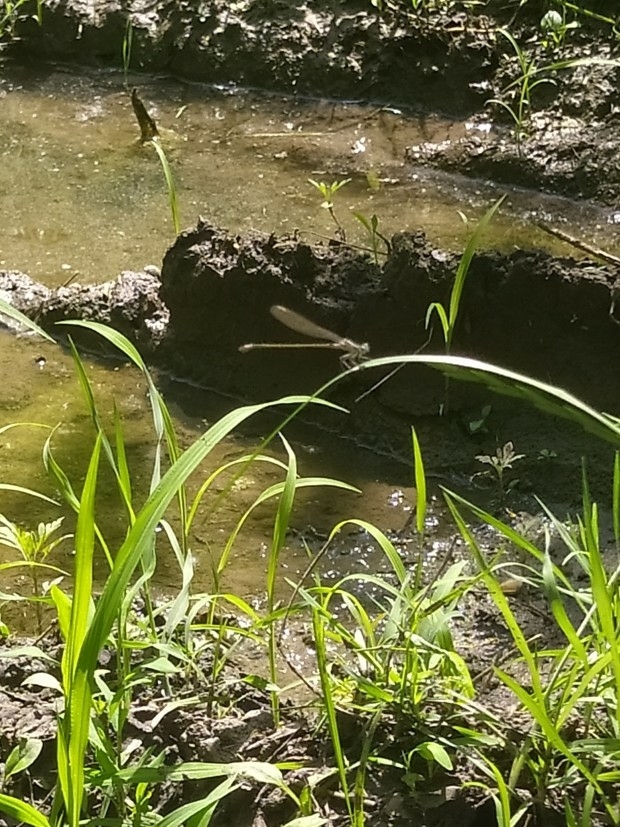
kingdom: Animalia
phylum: Arthropoda
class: Insecta
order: Odonata
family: Coenagrionidae
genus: Ischnura
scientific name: Ischnura elegans
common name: Blue-tailed damselfly
